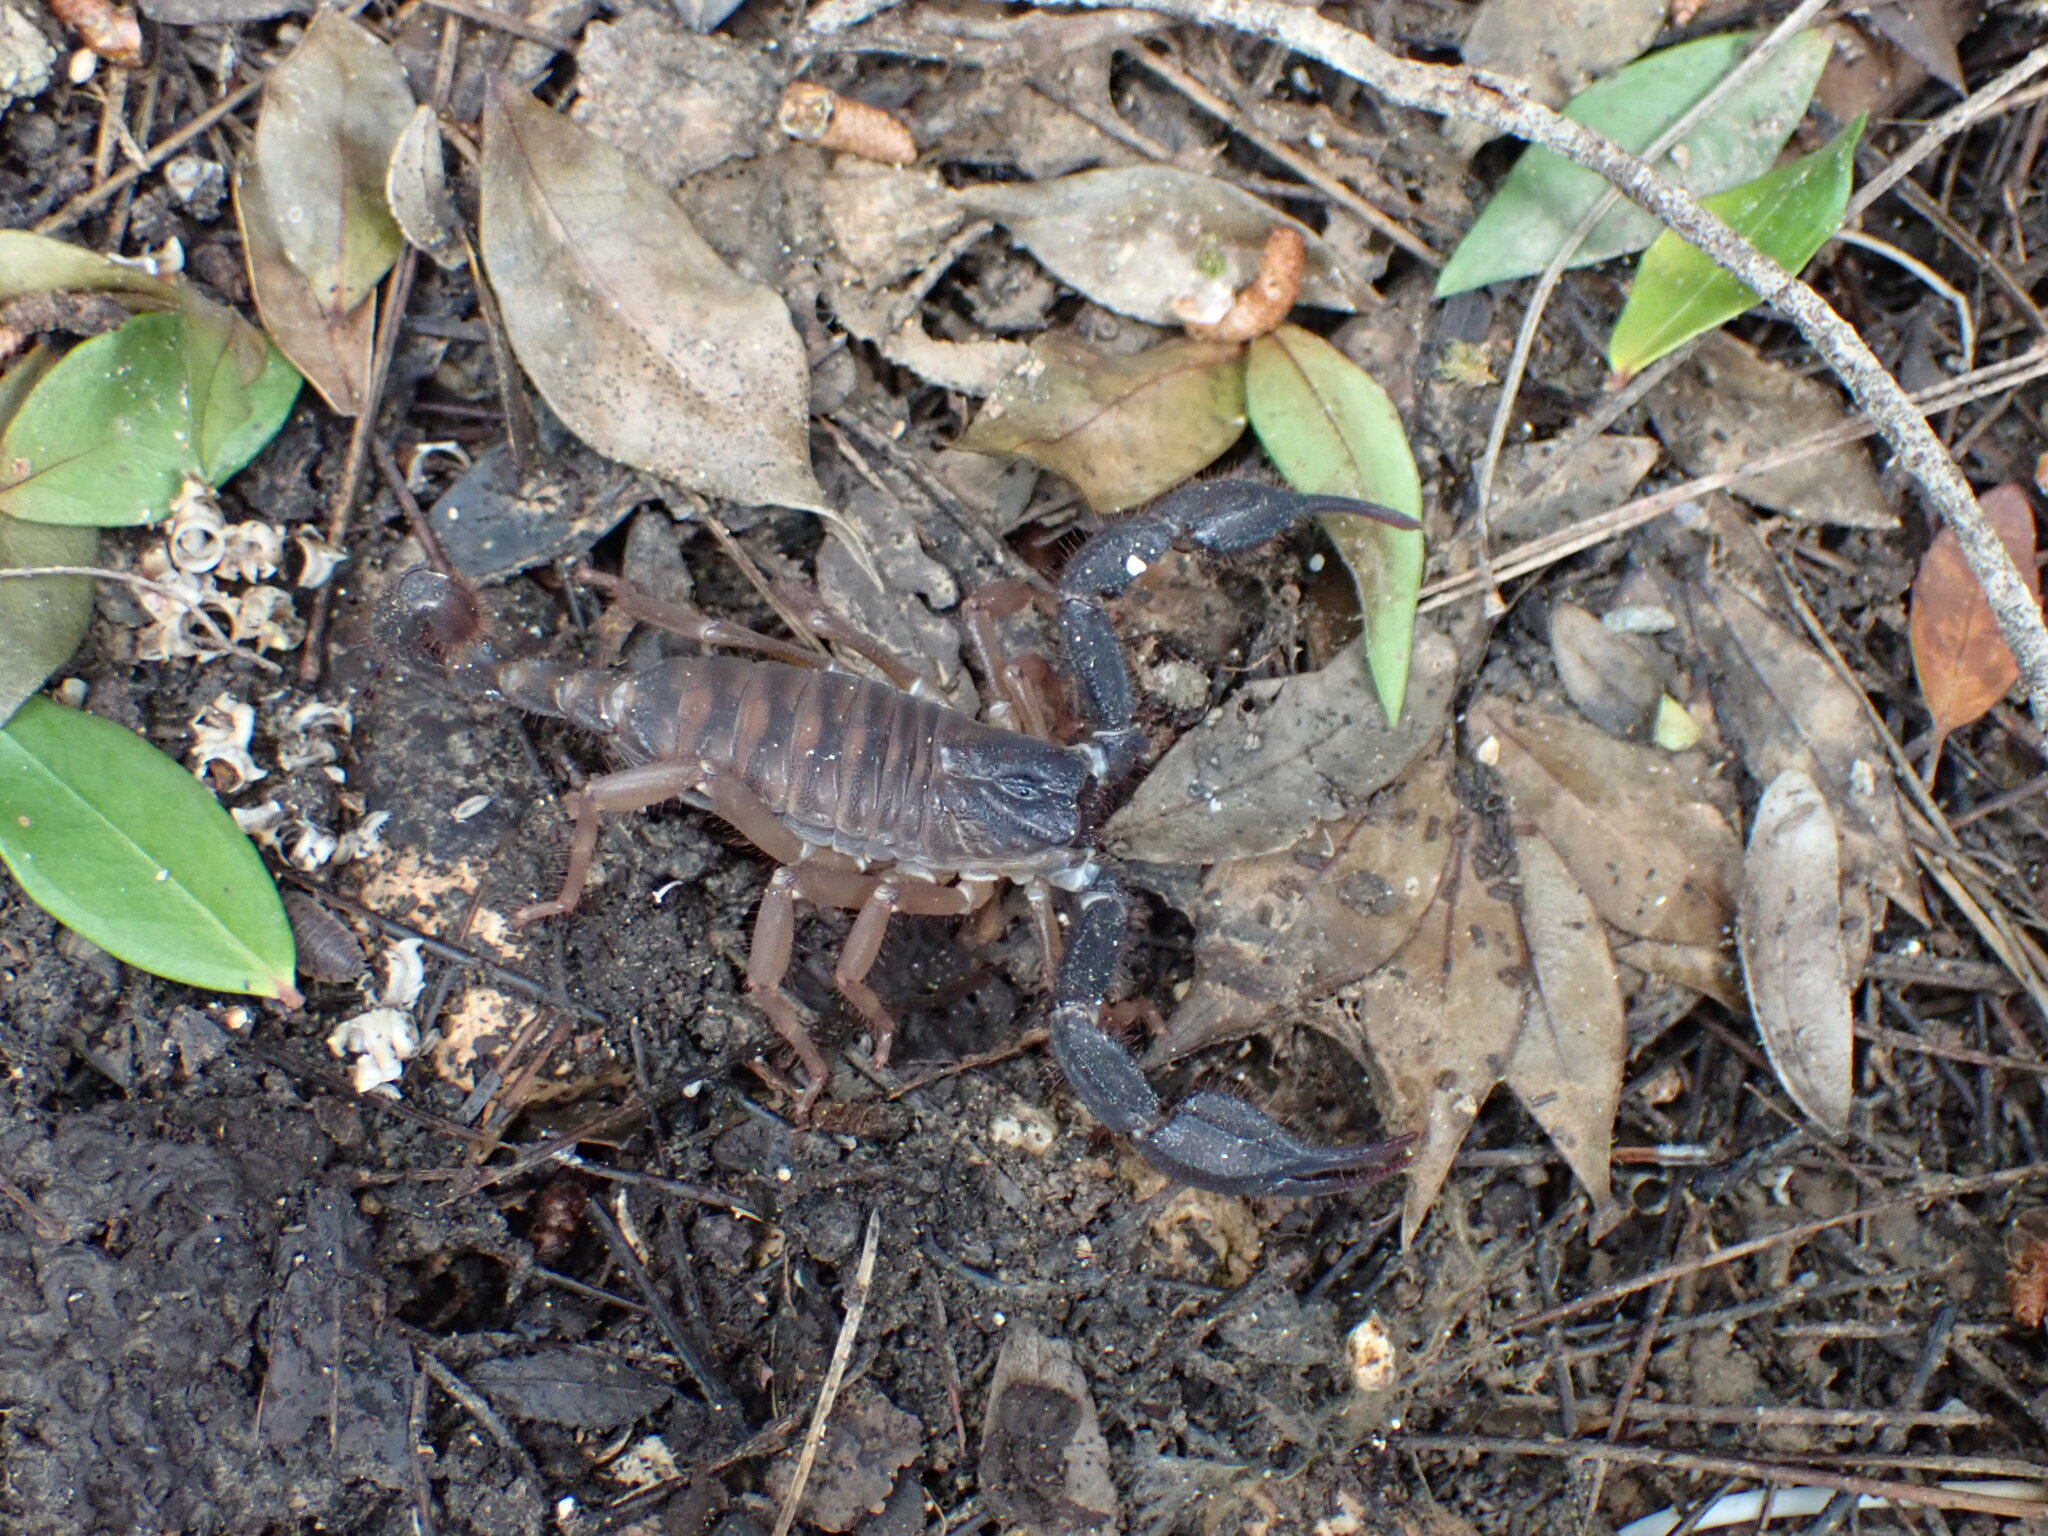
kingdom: Animalia
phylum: Arthropoda
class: Arachnida
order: Scorpiones
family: Iuridae
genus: Anatoliurus
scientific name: Anatoliurus kraepelini
